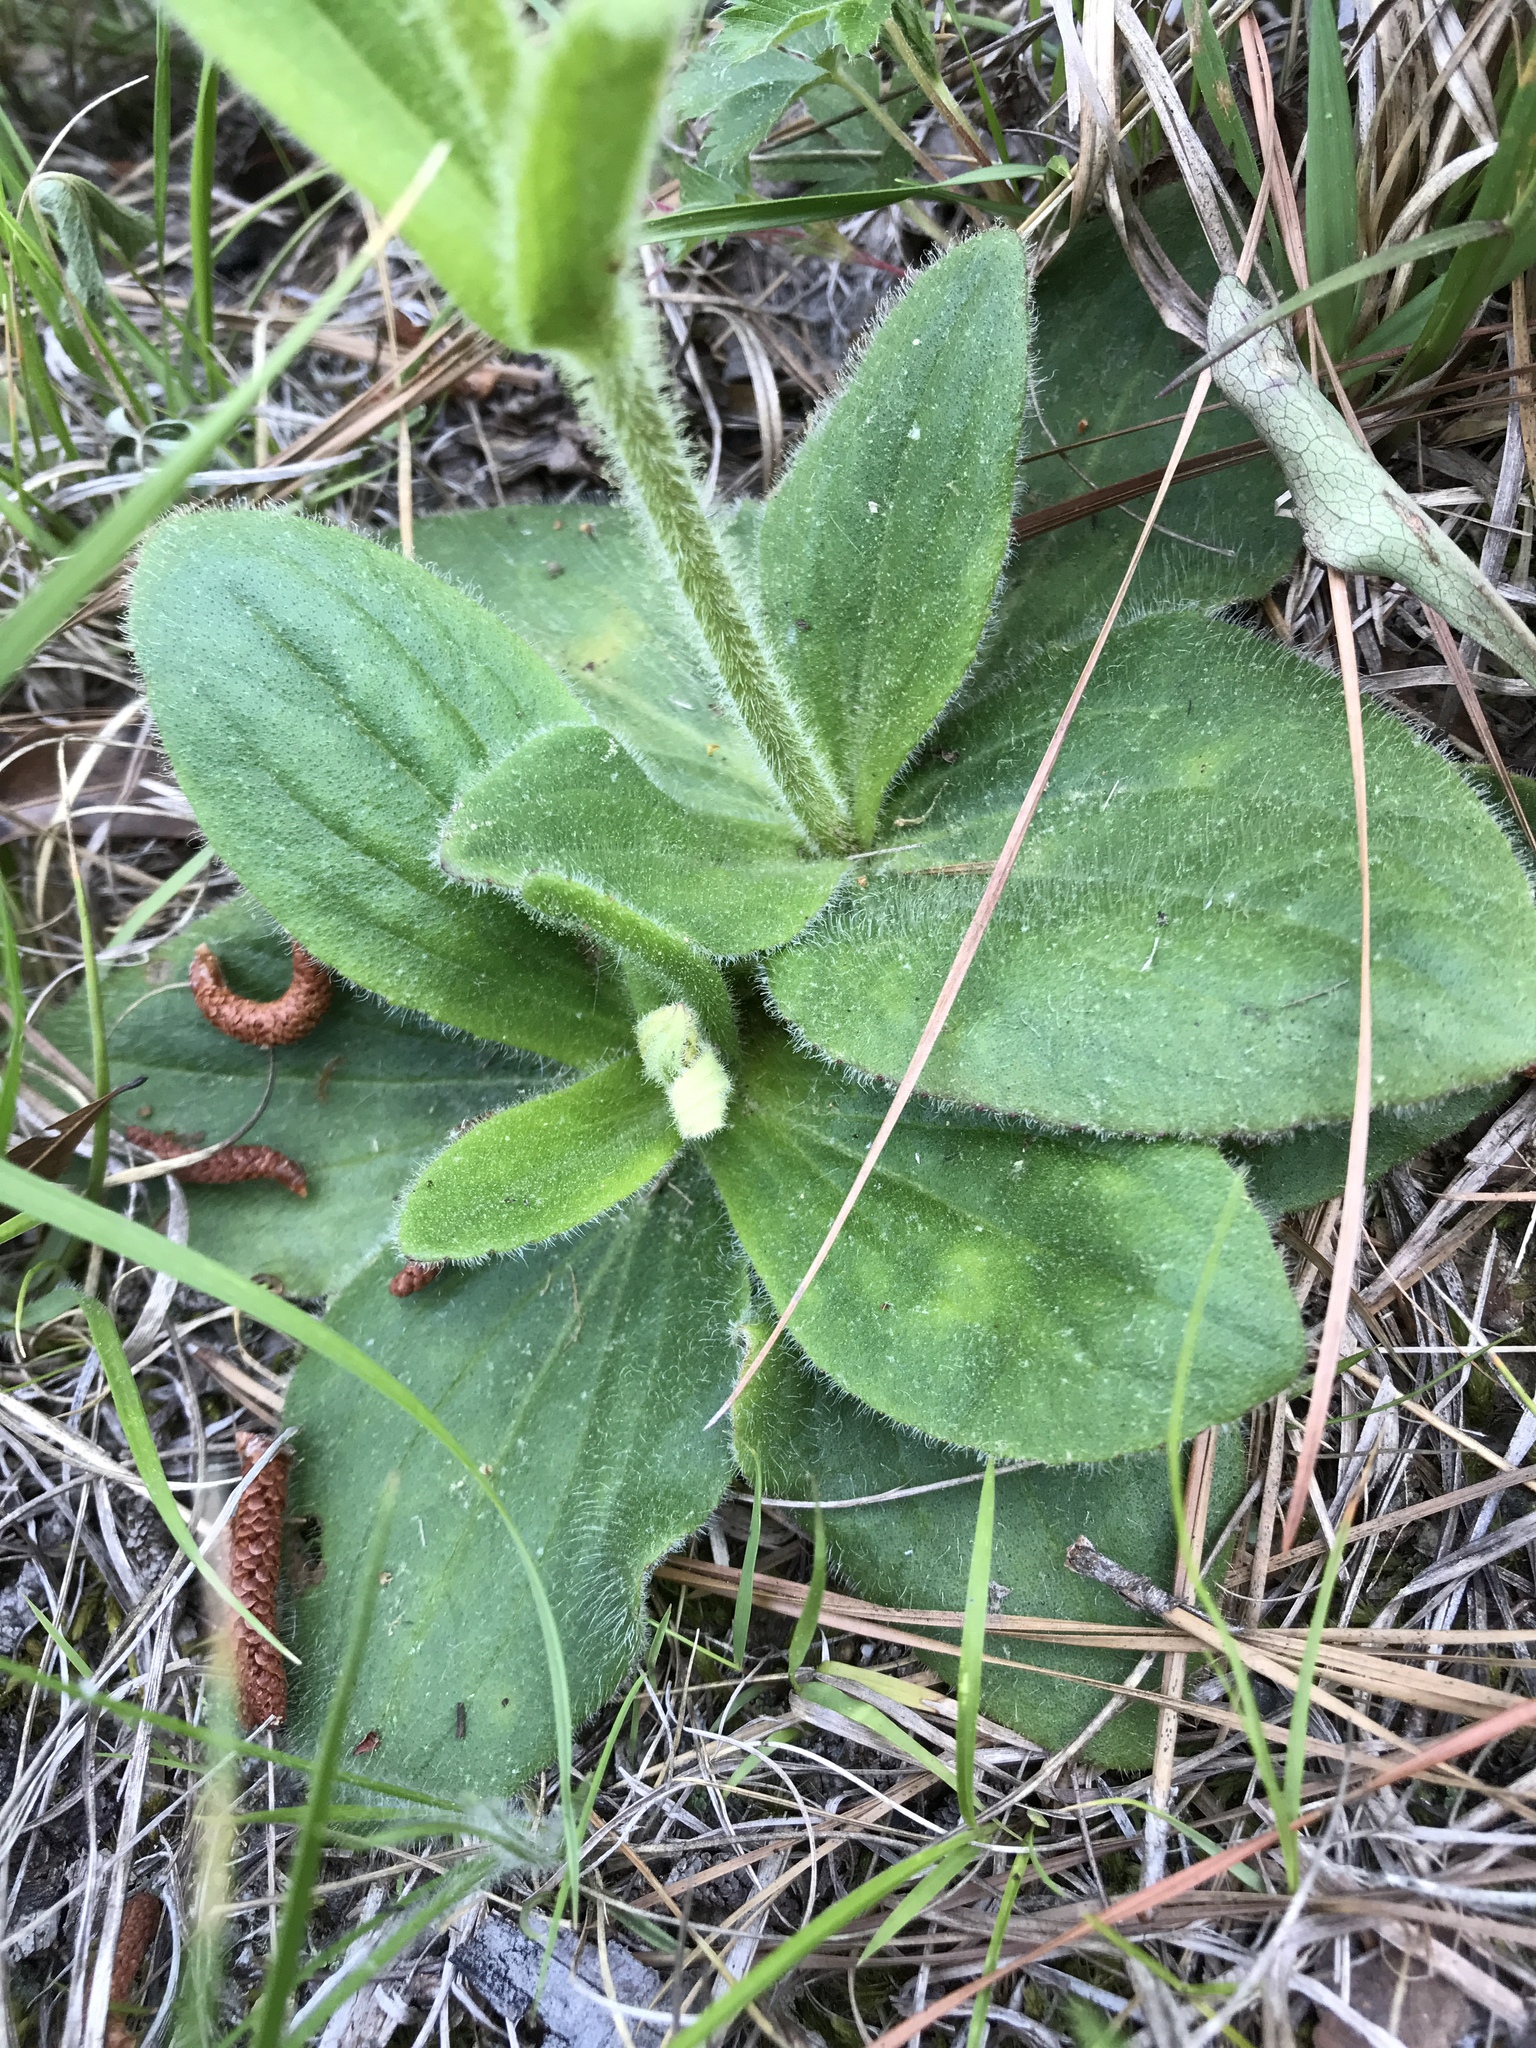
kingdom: Plantae
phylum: Tracheophyta
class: Magnoliopsida
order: Asterales
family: Asteraceae
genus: Arnica
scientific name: Arnica acaulis
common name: Common leopardbane
